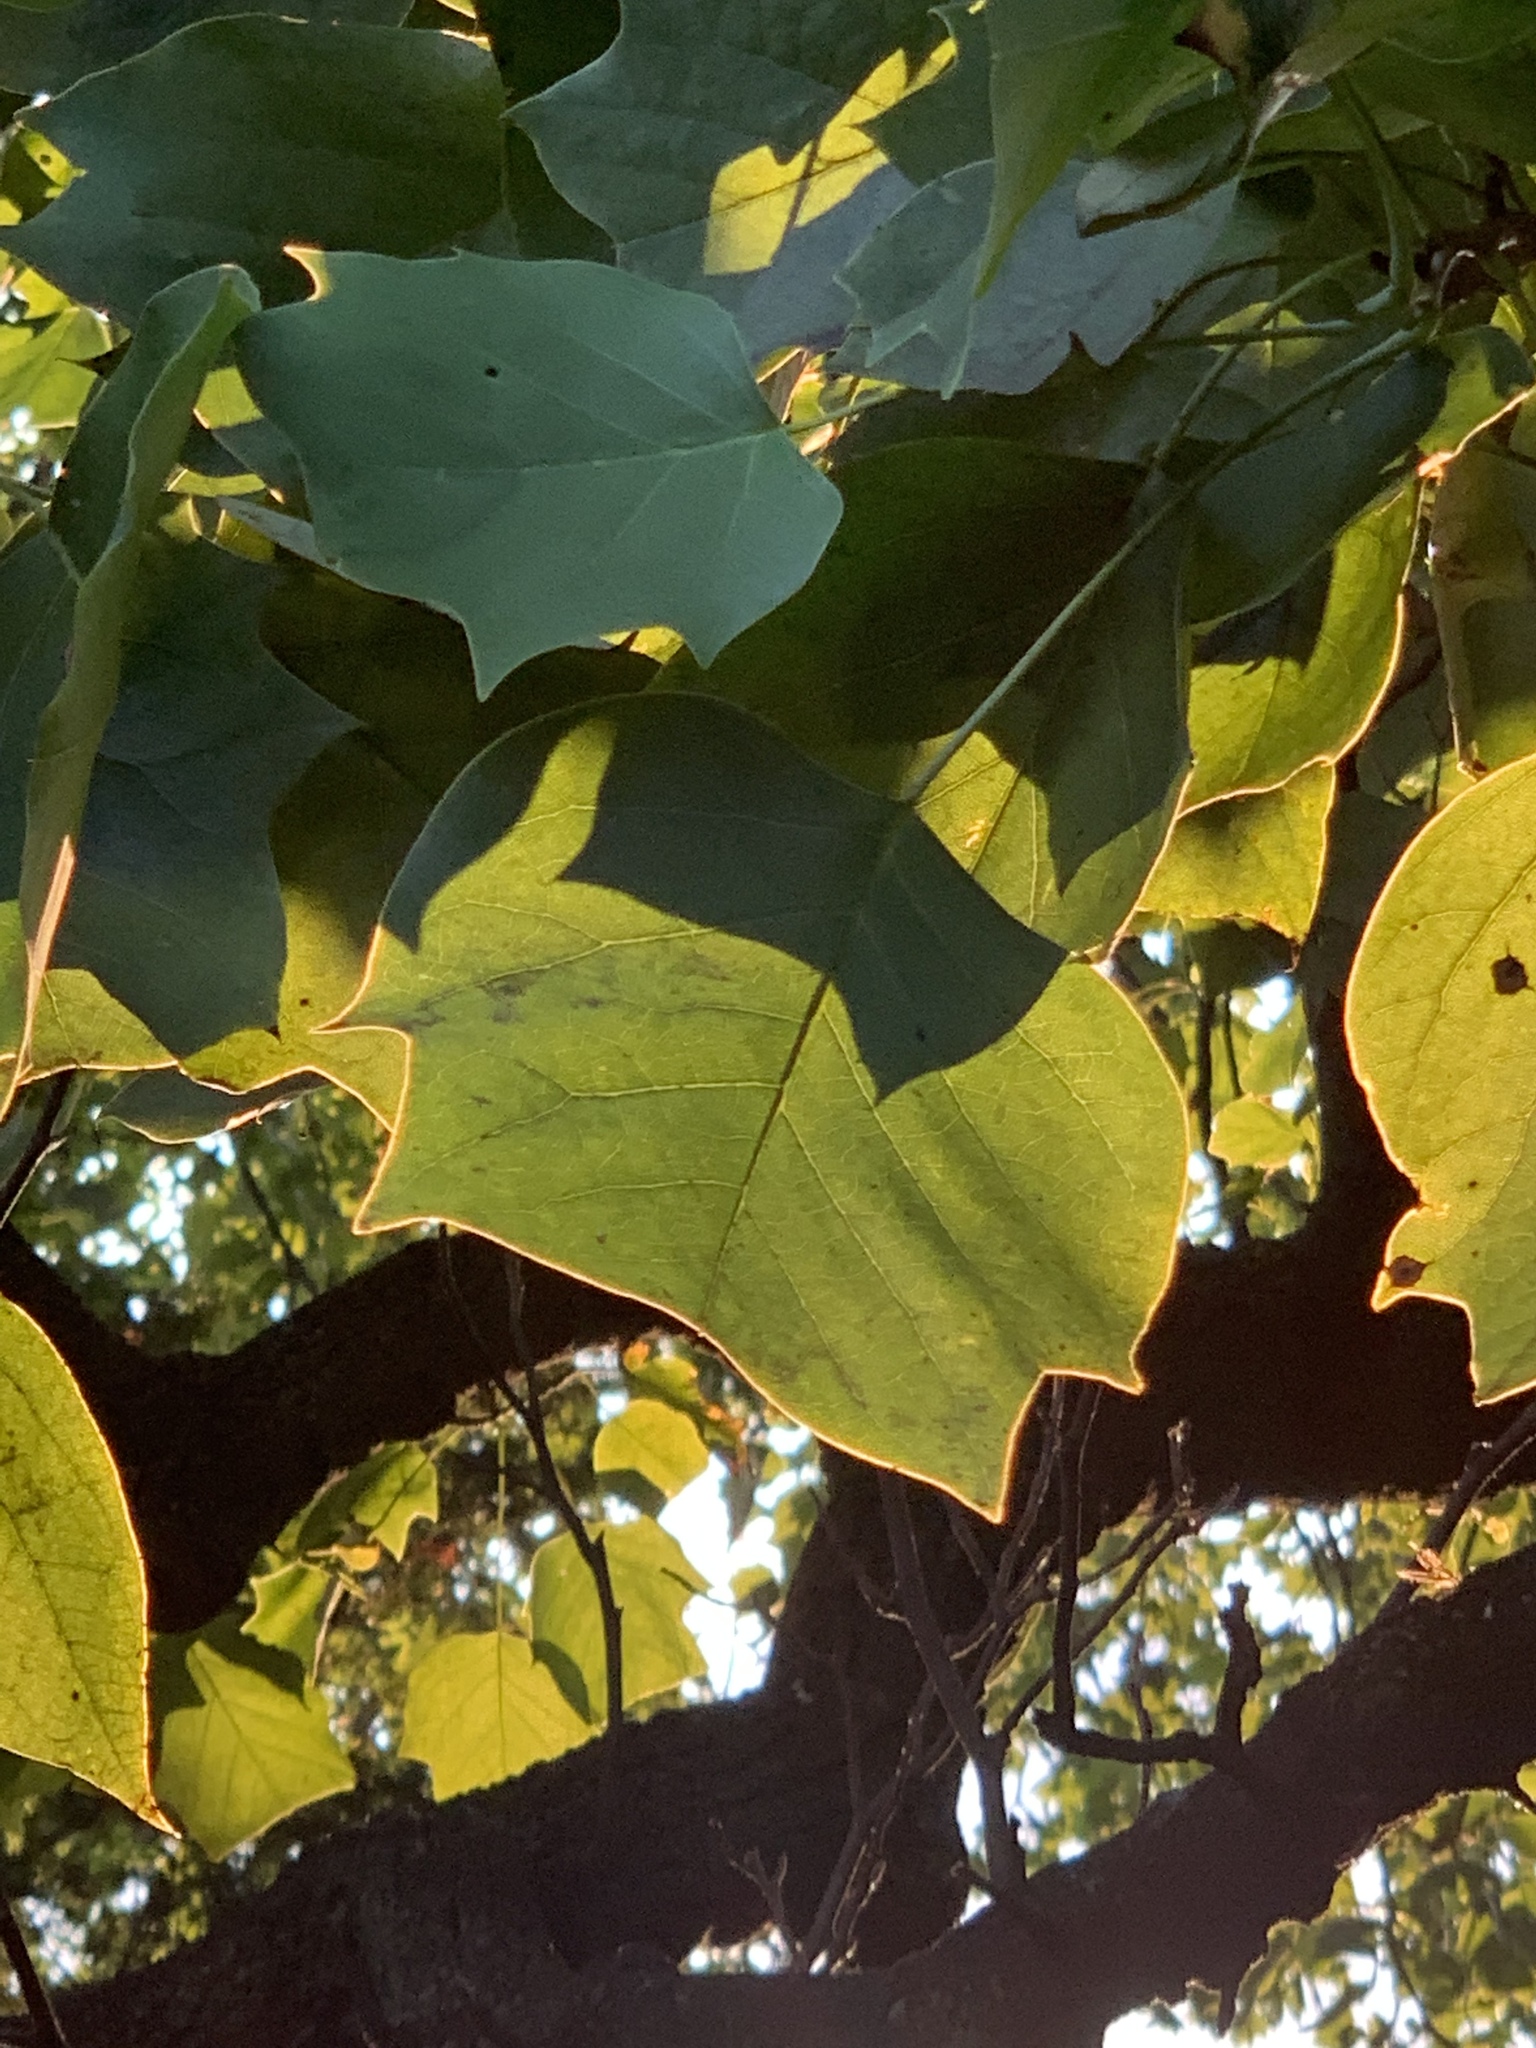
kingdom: Plantae
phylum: Tracheophyta
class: Magnoliopsida
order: Magnoliales
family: Magnoliaceae
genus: Liriodendron
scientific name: Liriodendron tulipifera
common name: Tulip tree
